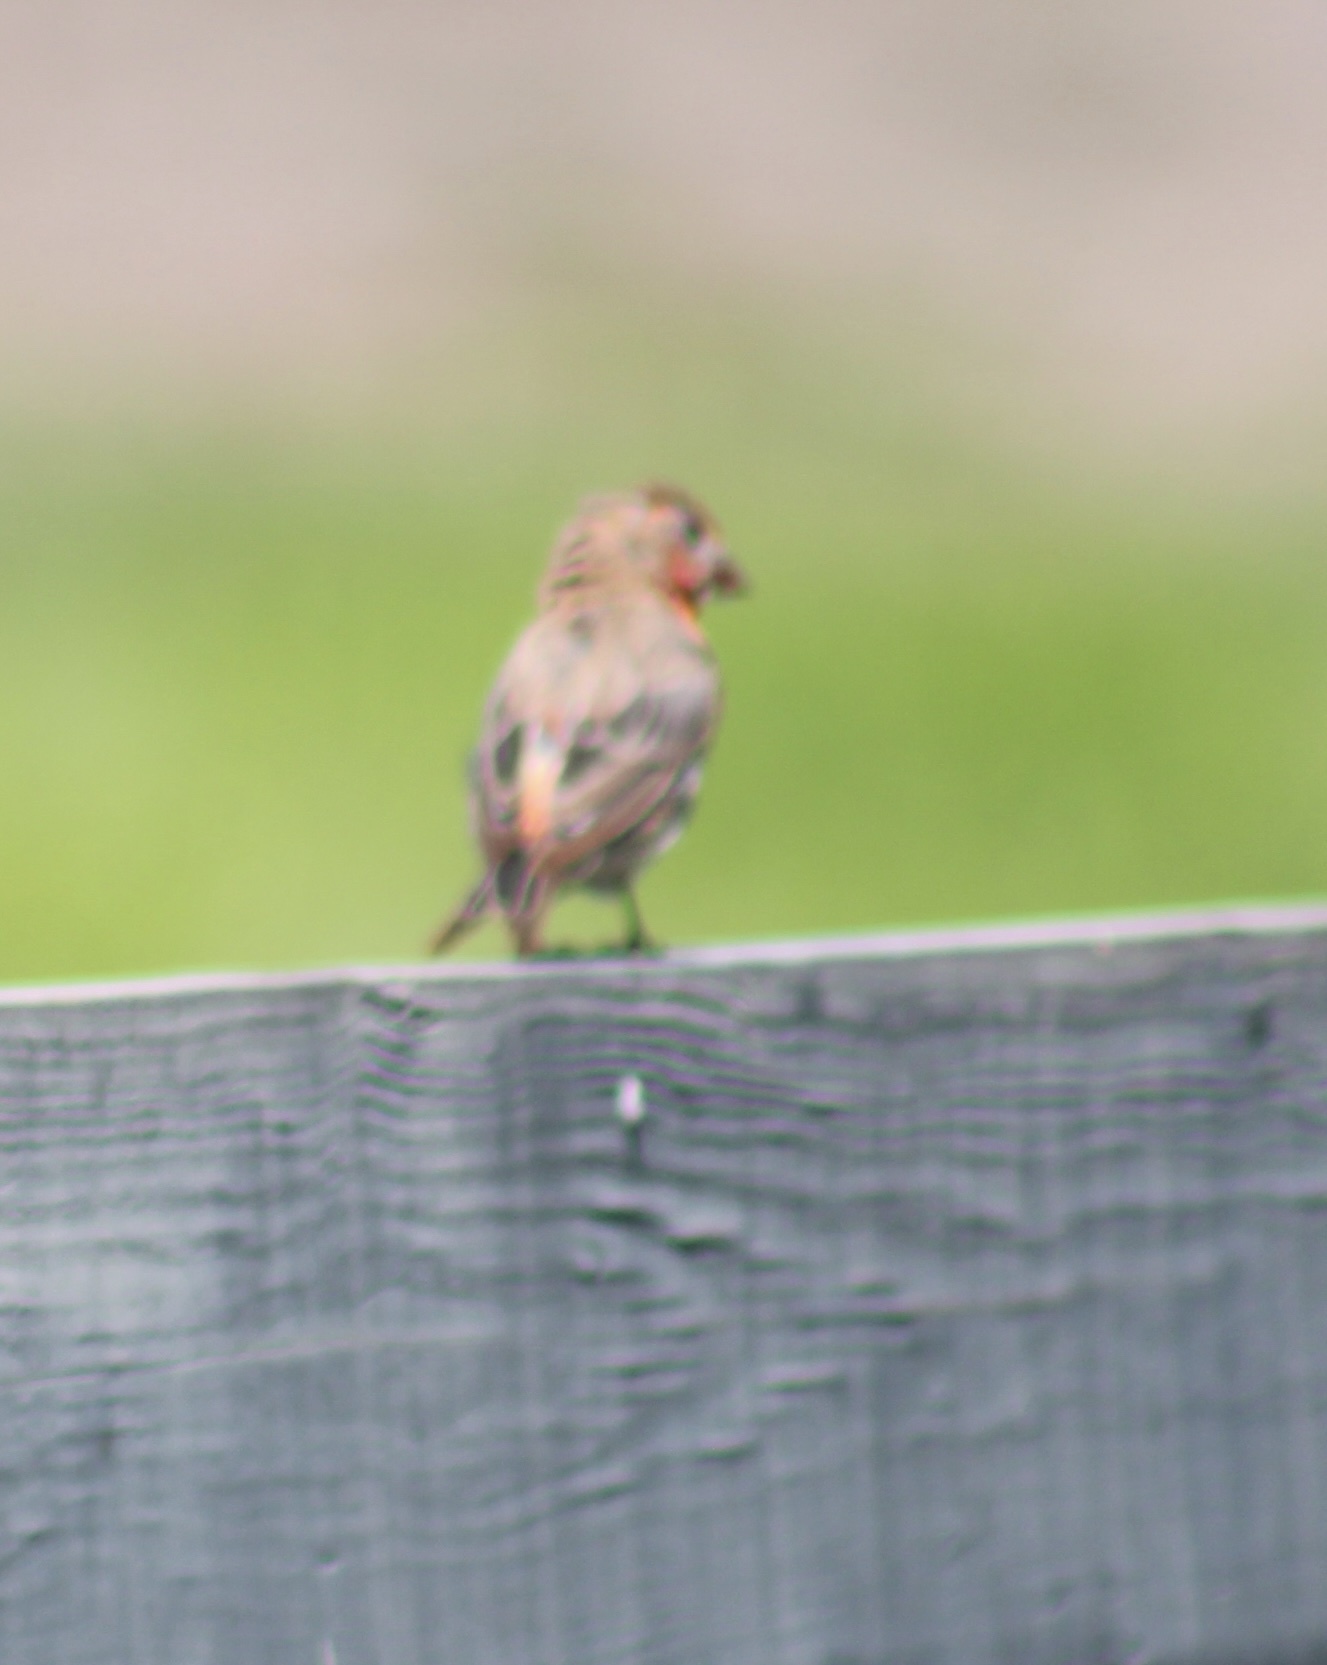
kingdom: Animalia
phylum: Chordata
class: Aves
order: Passeriformes
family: Fringillidae
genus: Haemorhous
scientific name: Haemorhous mexicanus
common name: House finch
